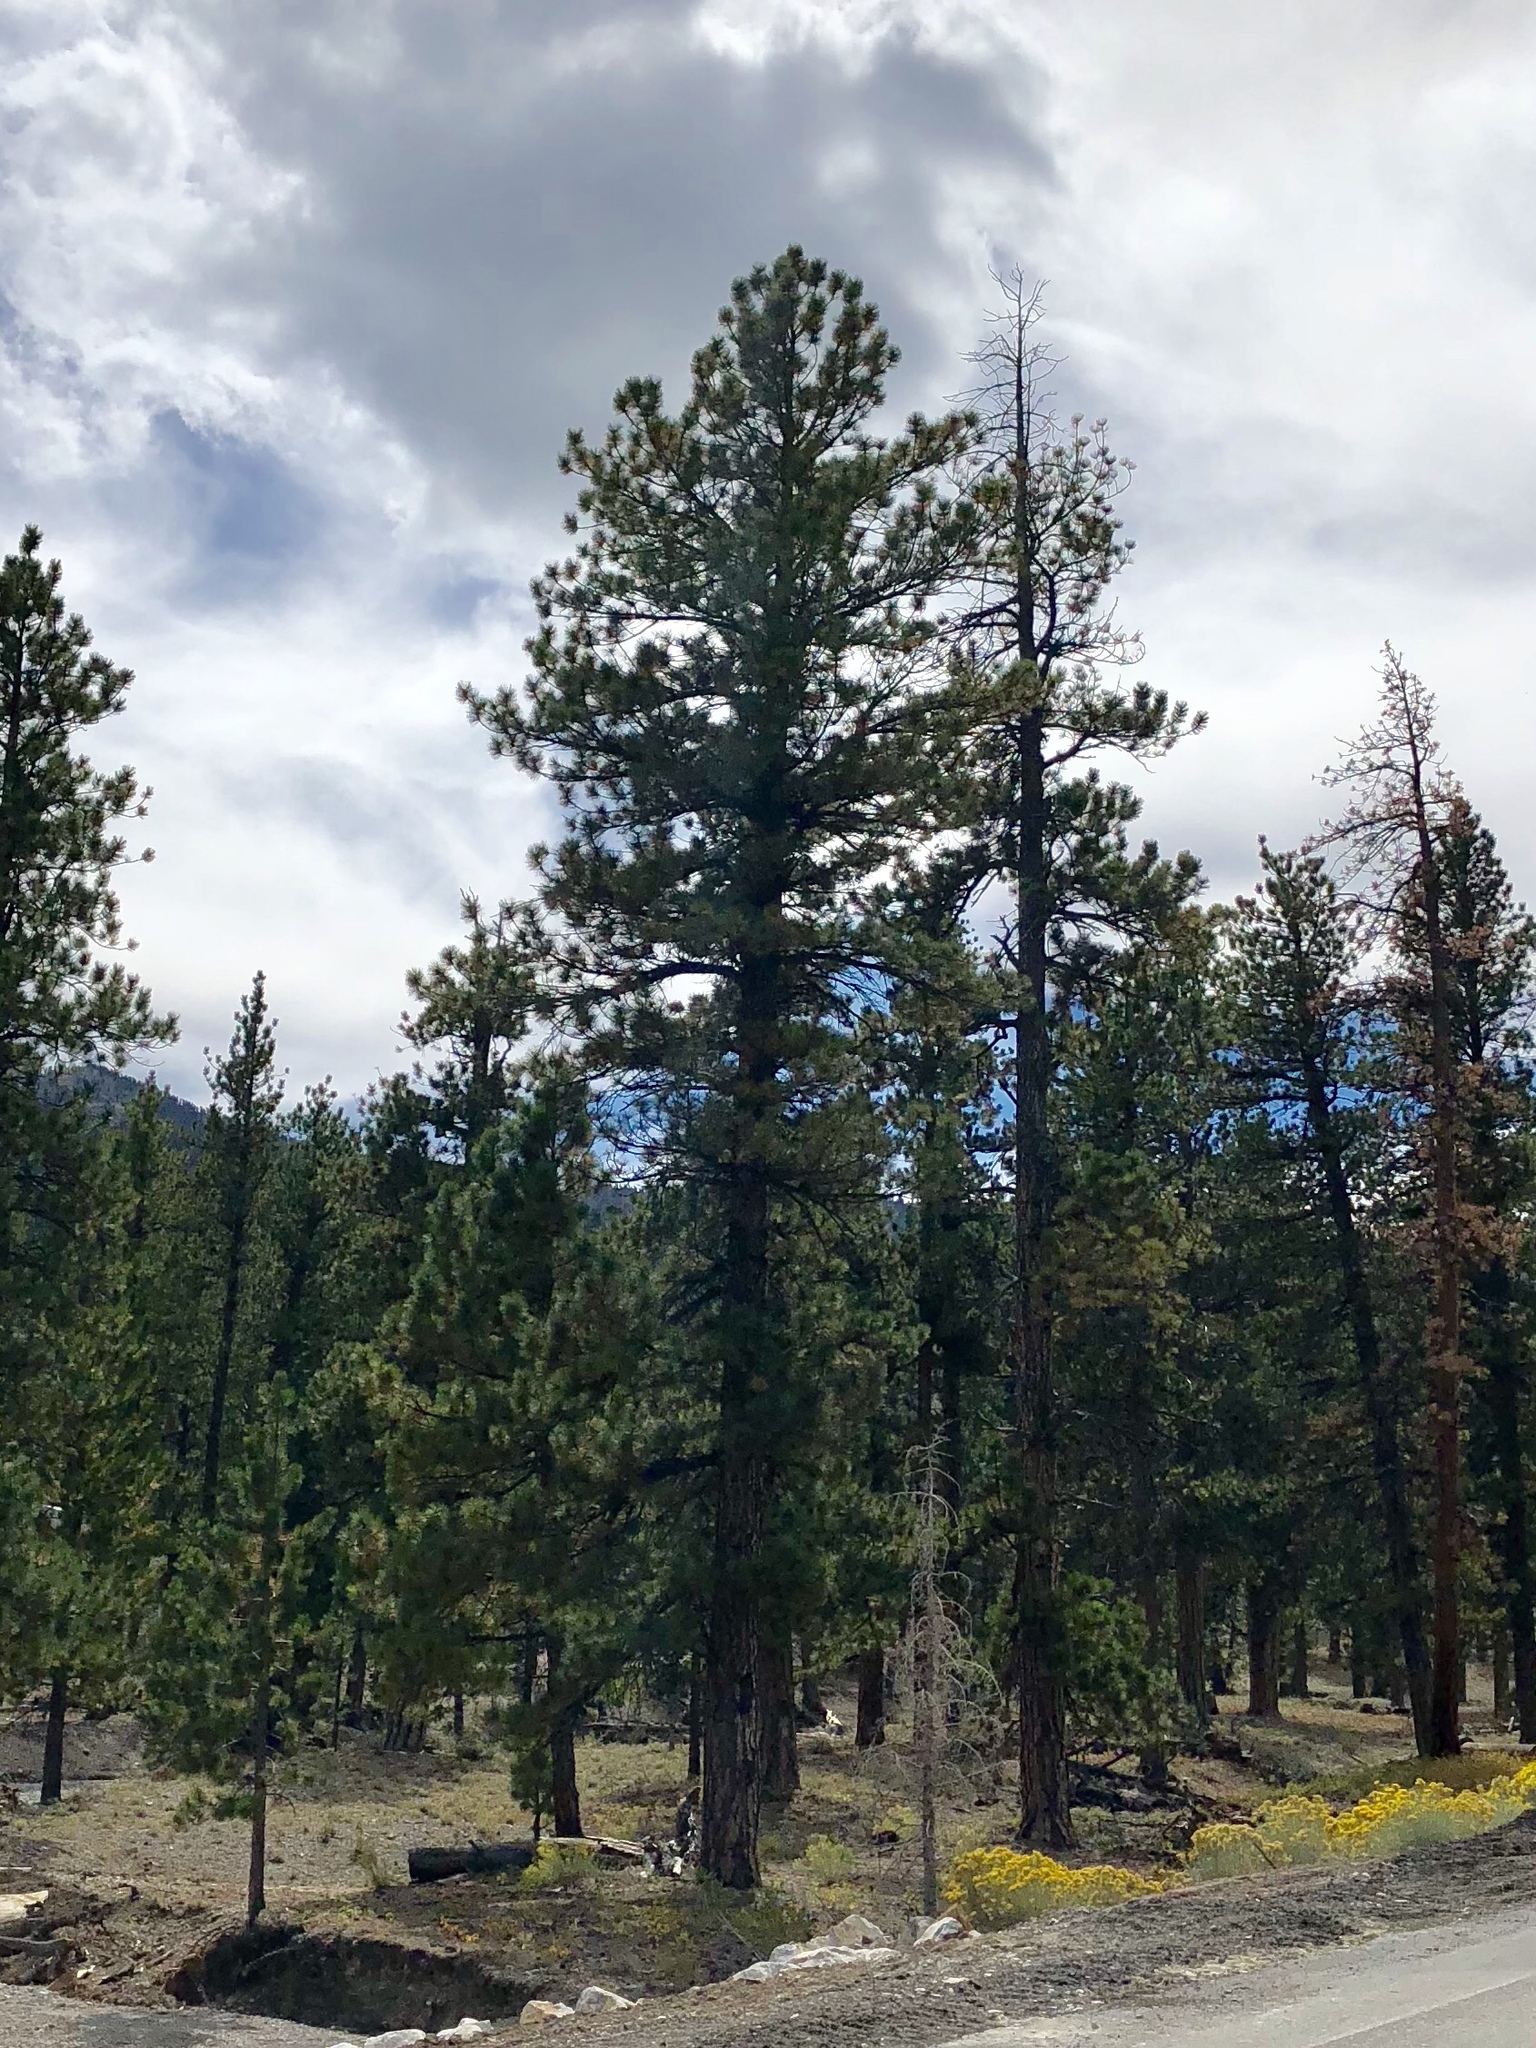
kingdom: Plantae
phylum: Tracheophyta
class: Pinopsida
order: Pinales
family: Pinaceae
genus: Pinus
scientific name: Pinus ponderosa
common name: Western yellow-pine
